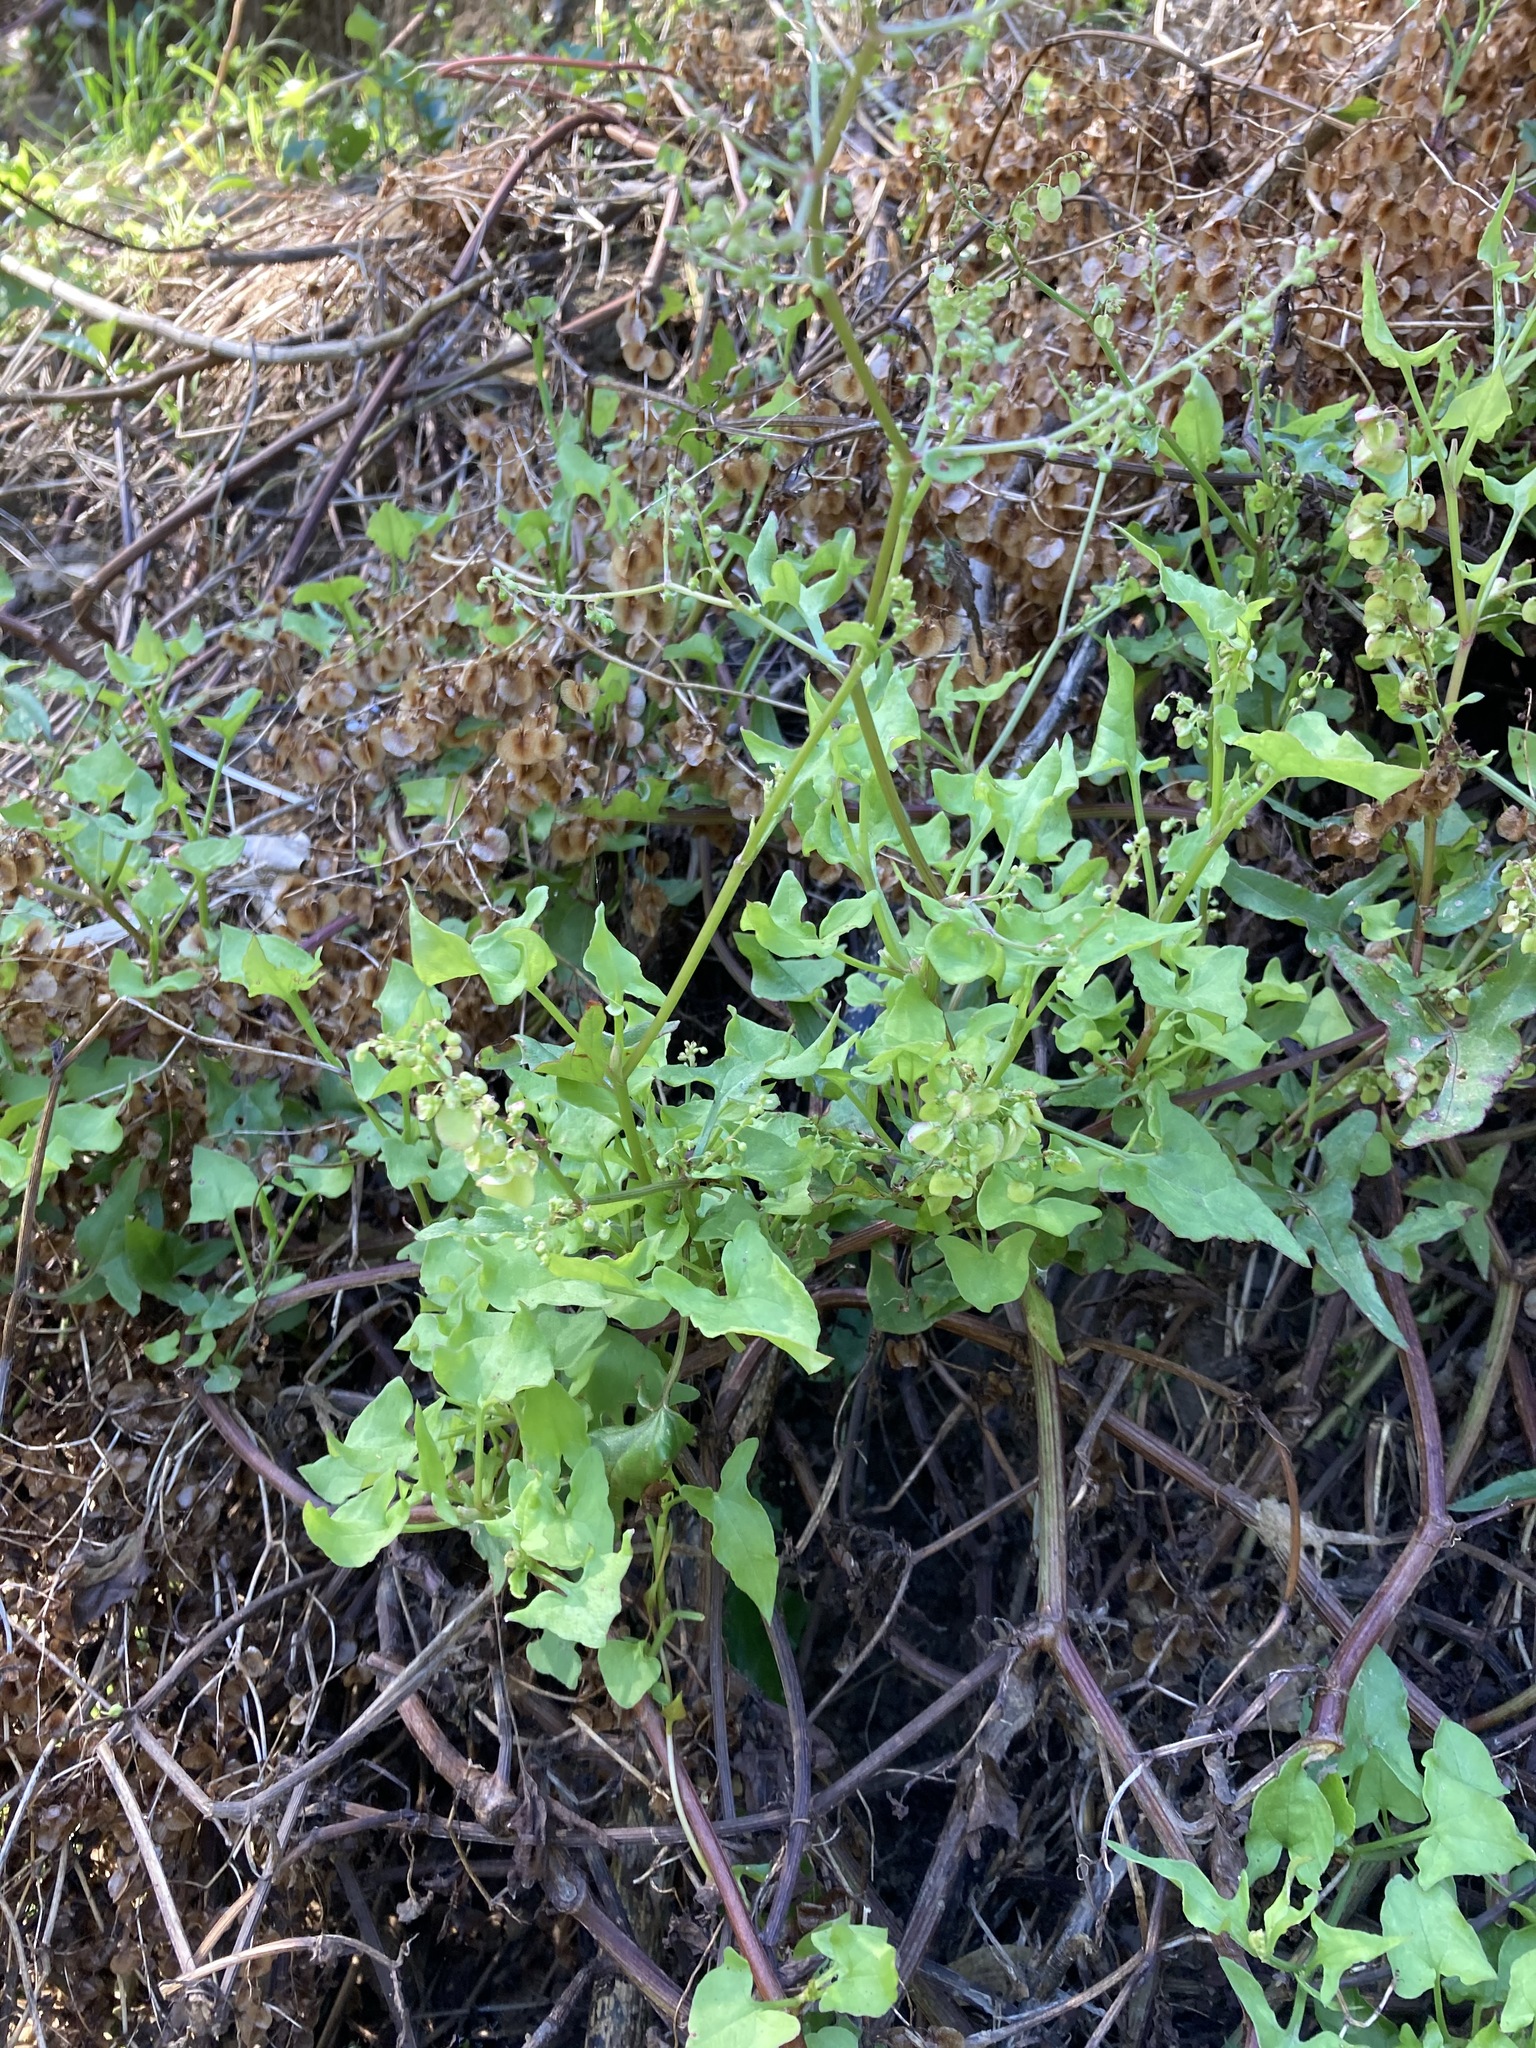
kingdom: Plantae
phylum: Tracheophyta
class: Magnoliopsida
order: Caryophyllales
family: Polygonaceae
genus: Rumex
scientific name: Rumex sagittatus
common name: Climbing dock
